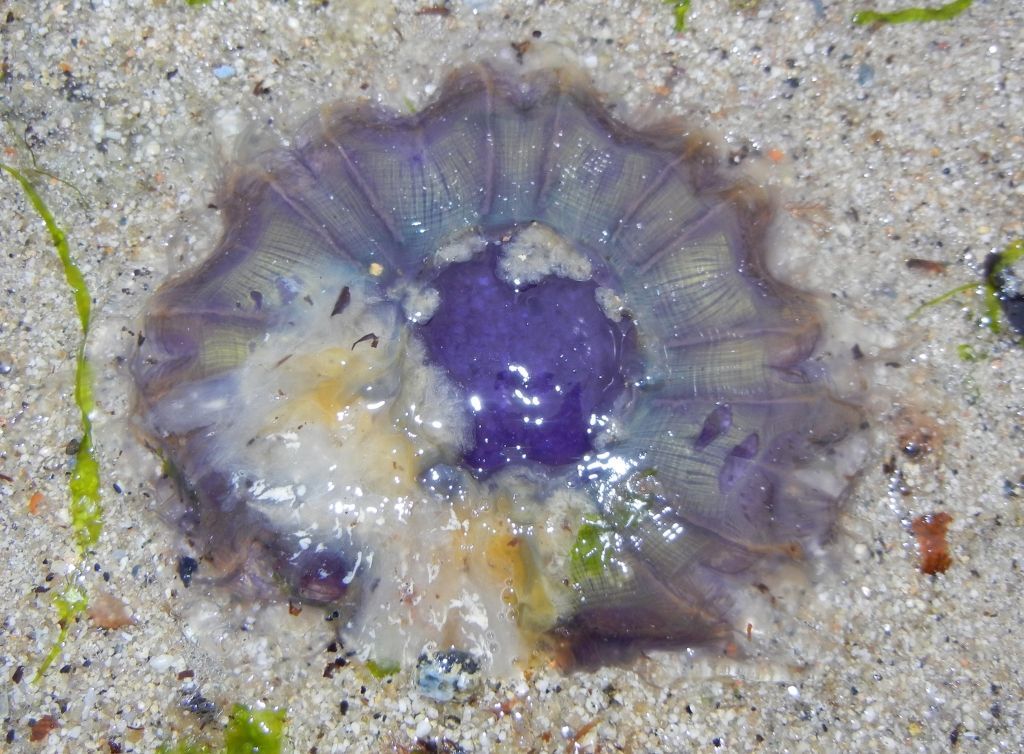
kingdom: Animalia
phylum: Cnidaria
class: Scyphozoa
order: Semaeostomeae
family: Cyaneidae
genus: Cyanea
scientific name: Cyanea lamarckii
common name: Blue jellyfish
